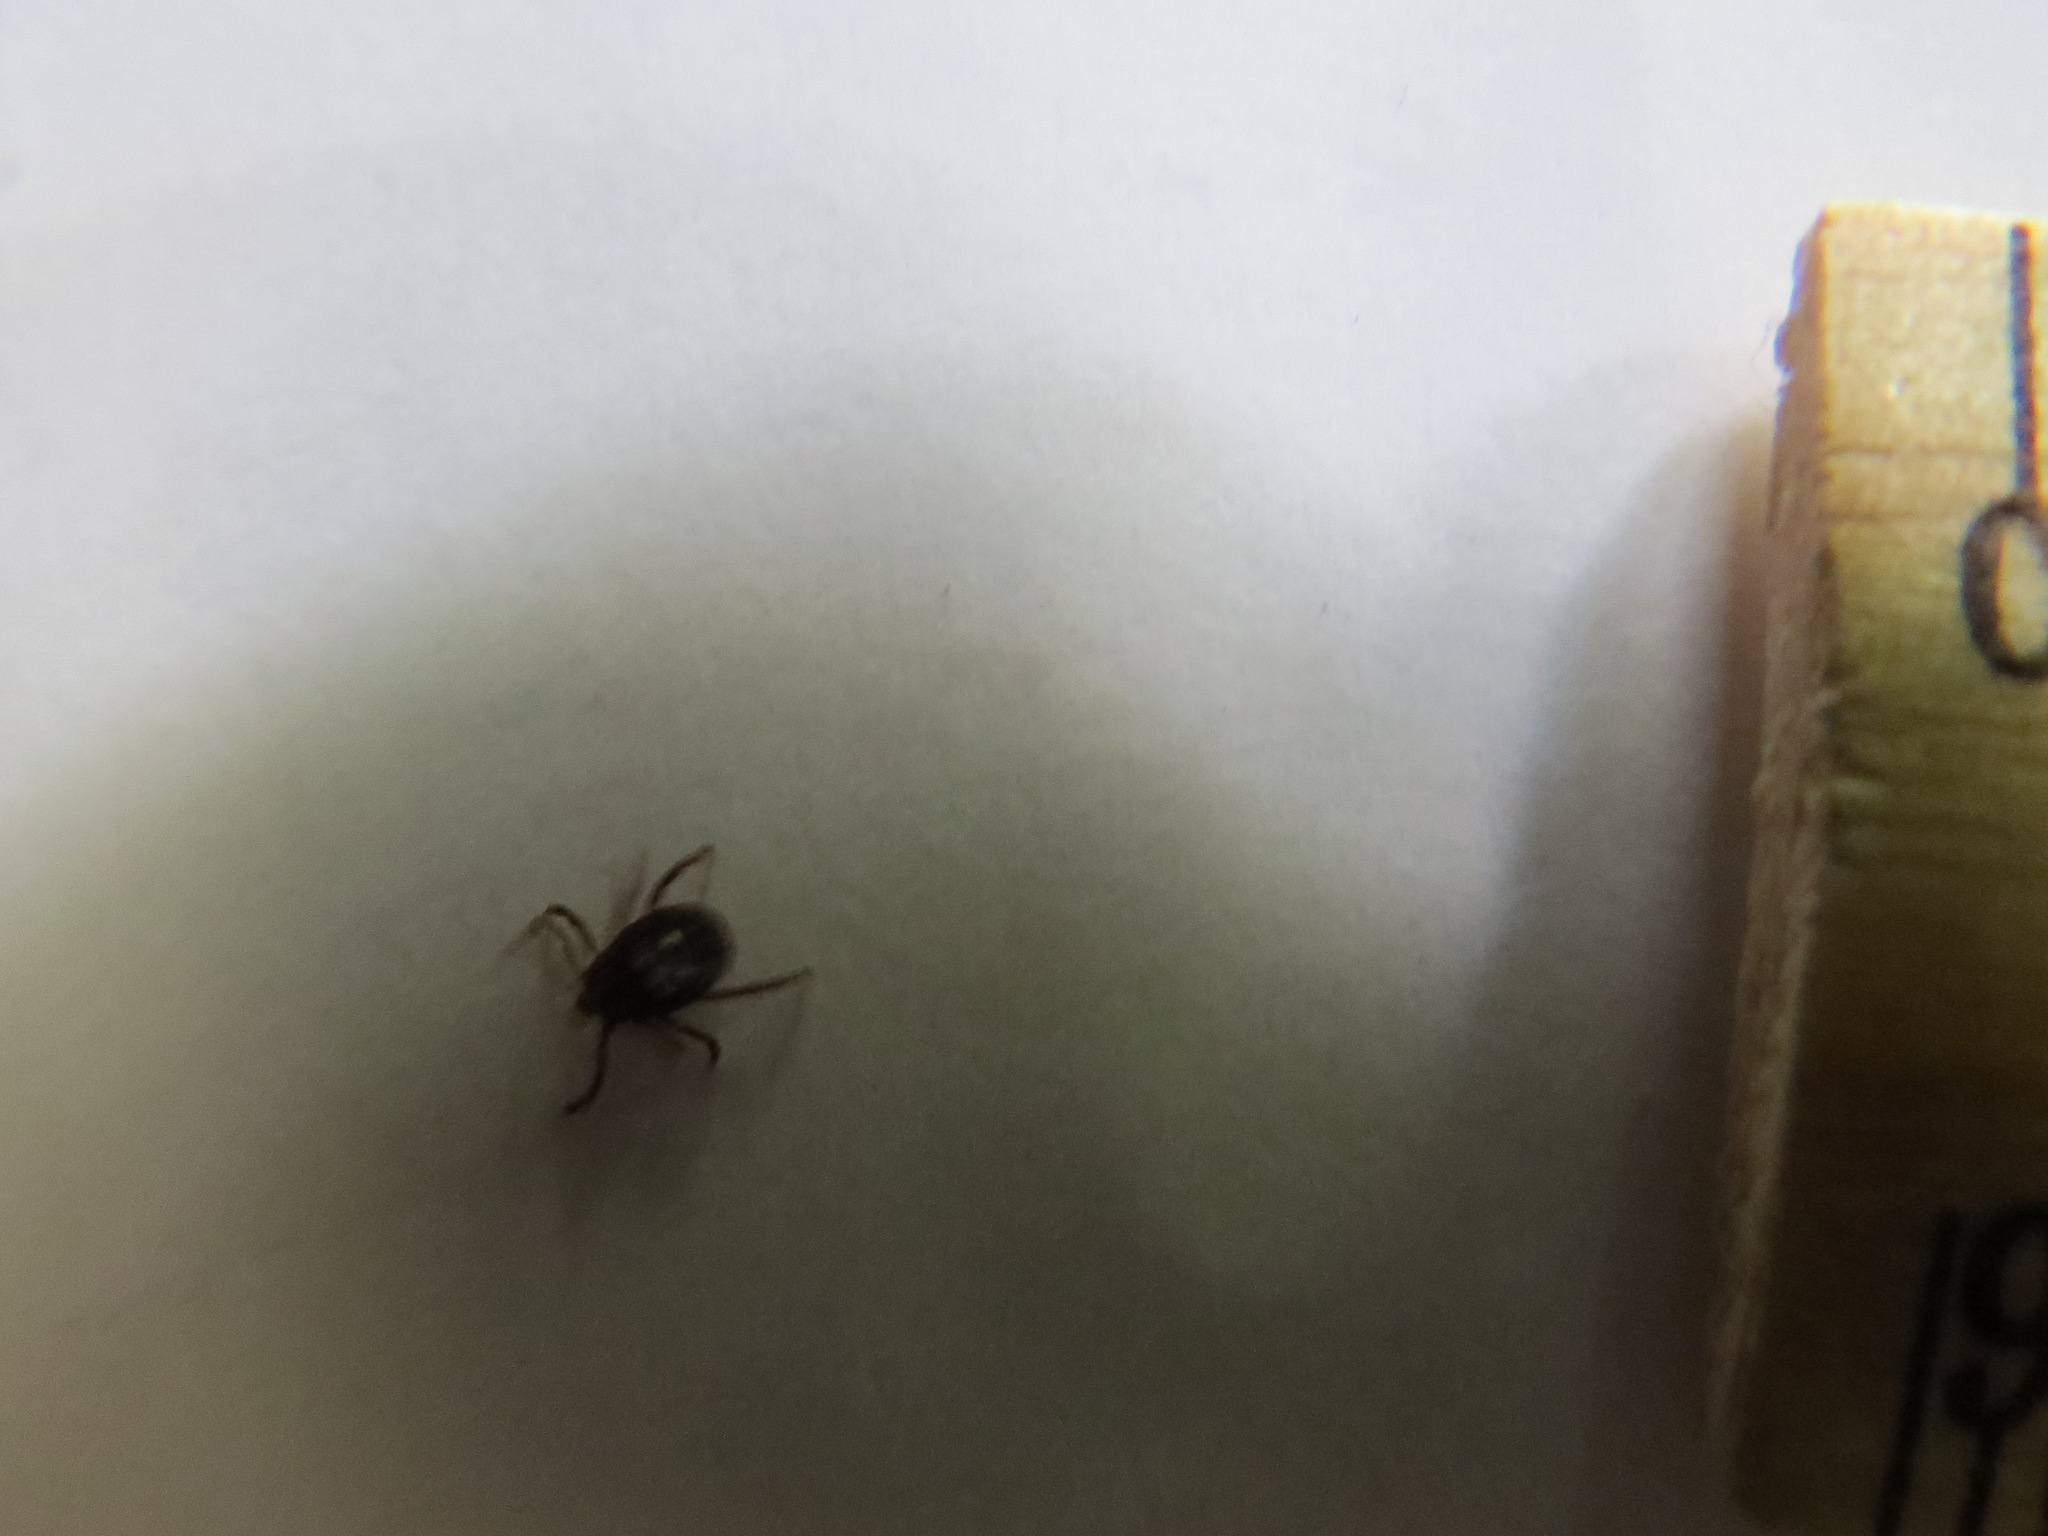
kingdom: Animalia
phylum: Arthropoda
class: Arachnida
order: Ixodida
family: Ixodidae
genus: Dermacentor
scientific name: Dermacentor occidentalis
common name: Net tick
